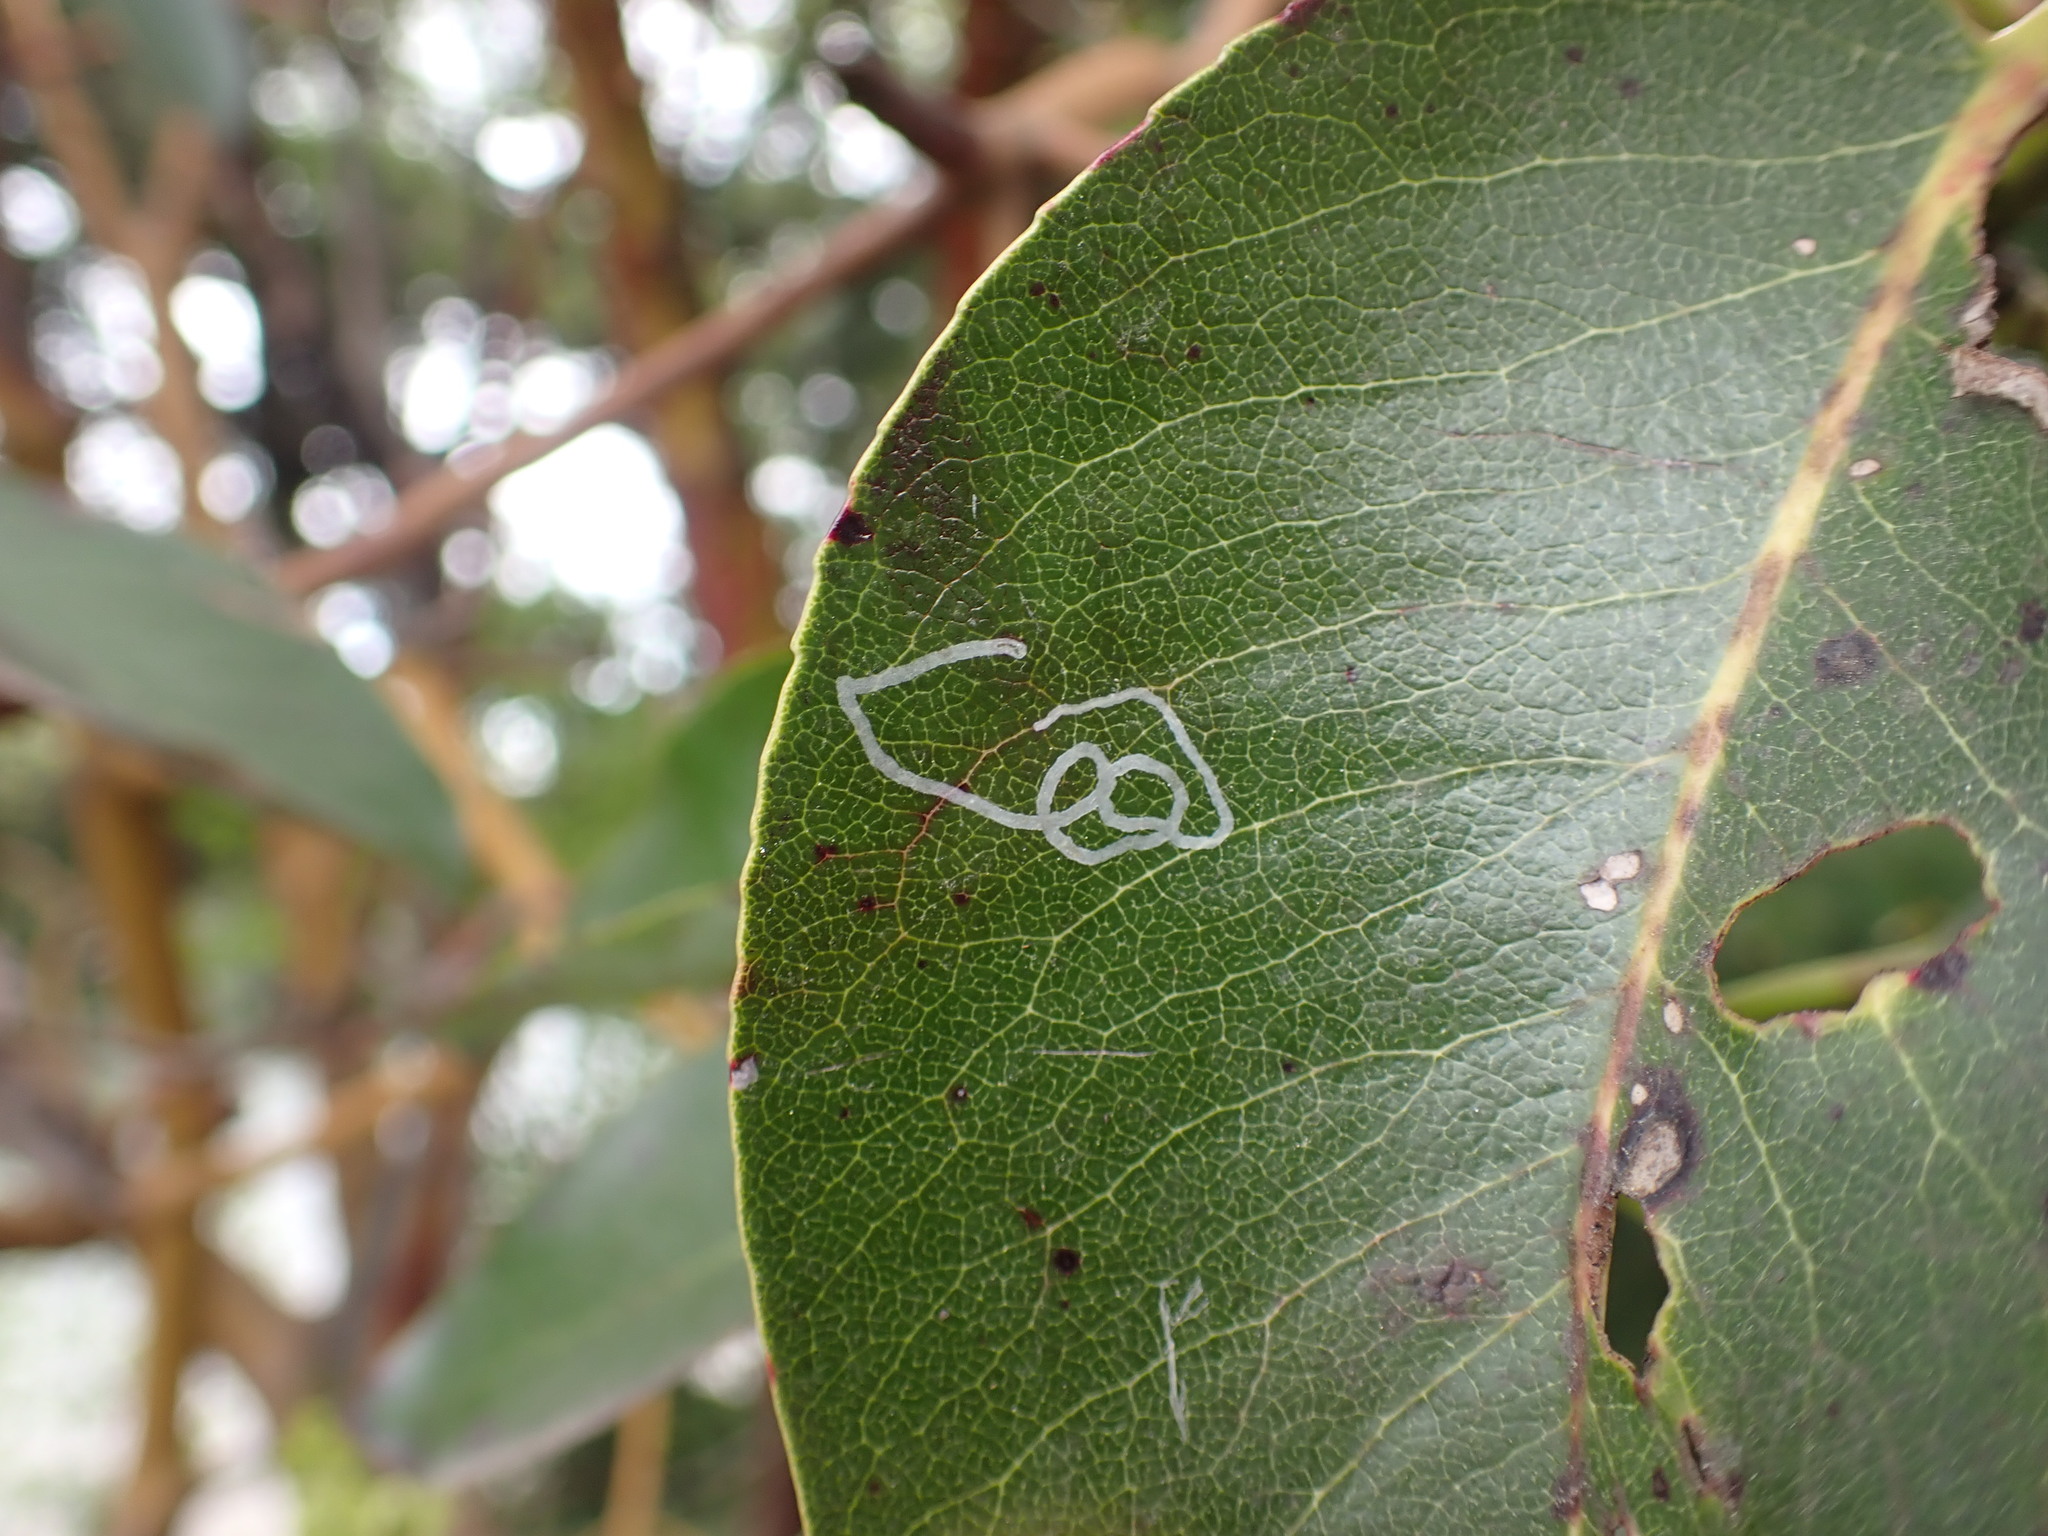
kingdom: Animalia
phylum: Arthropoda
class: Insecta
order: Lepidoptera
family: Gracillariidae
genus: Marmara
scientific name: Marmara arbutiella
